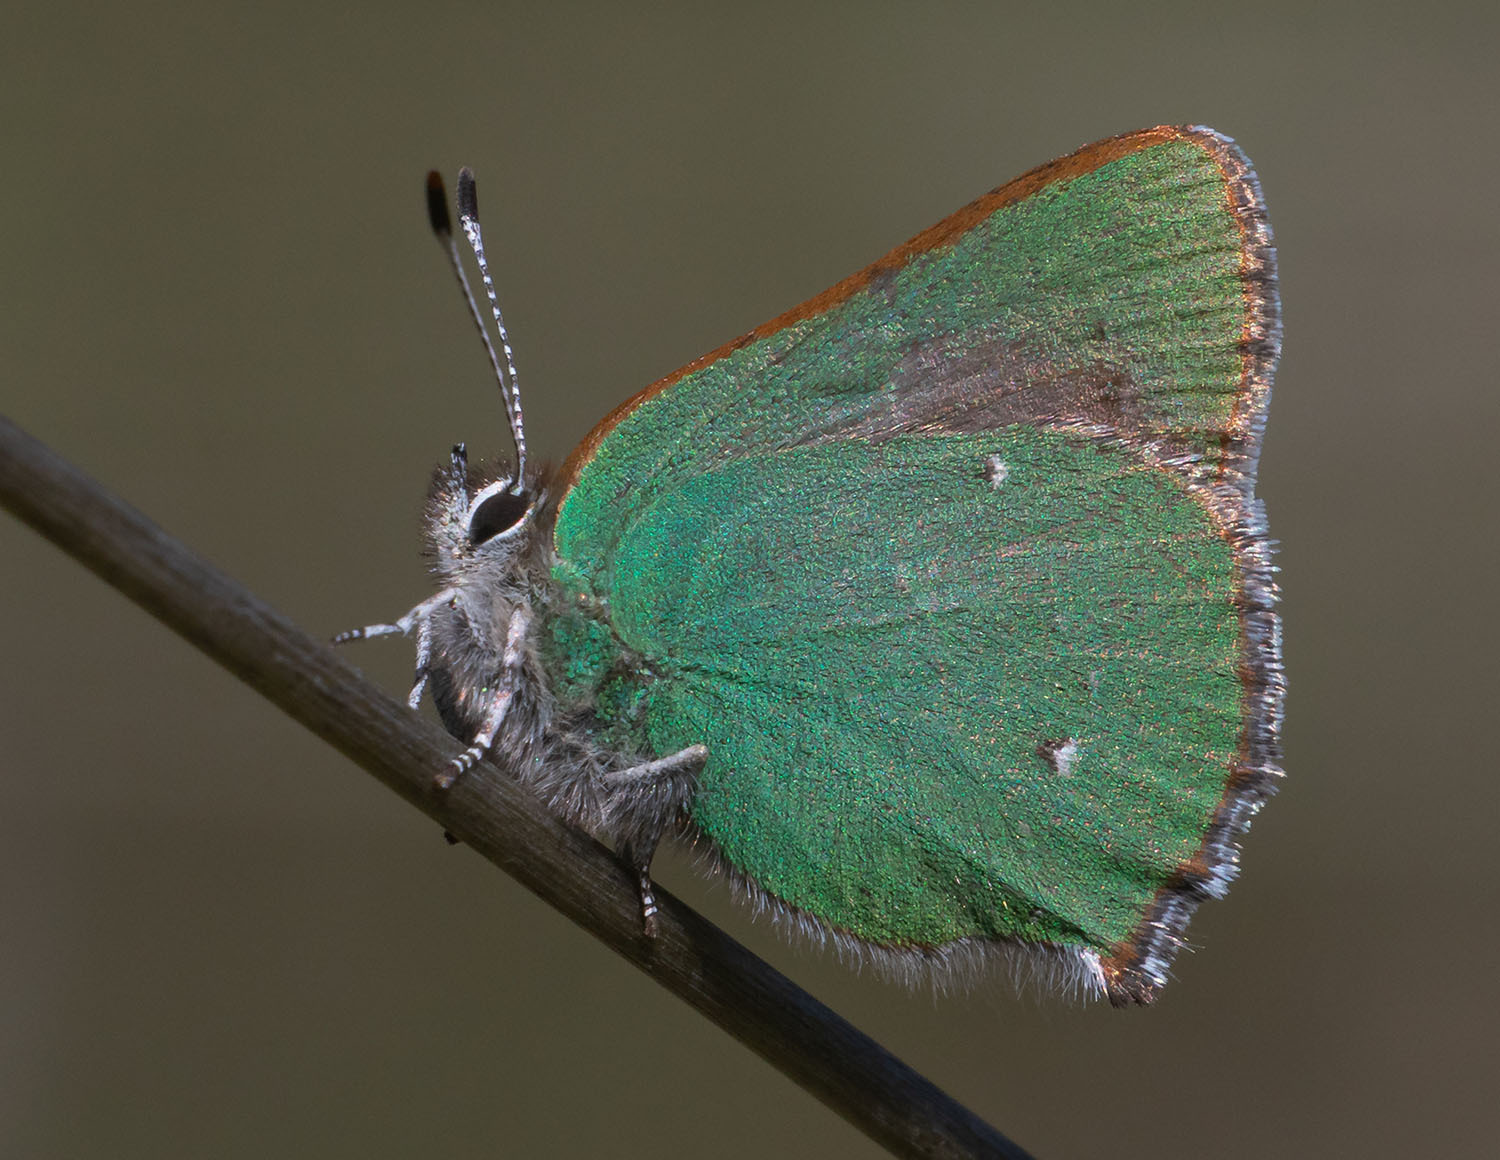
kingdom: Animalia
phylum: Arthropoda
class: Insecta
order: Lepidoptera
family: Lycaenidae
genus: Callophrys
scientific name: Callophrys dumetorum
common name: Bramble hairstreak
